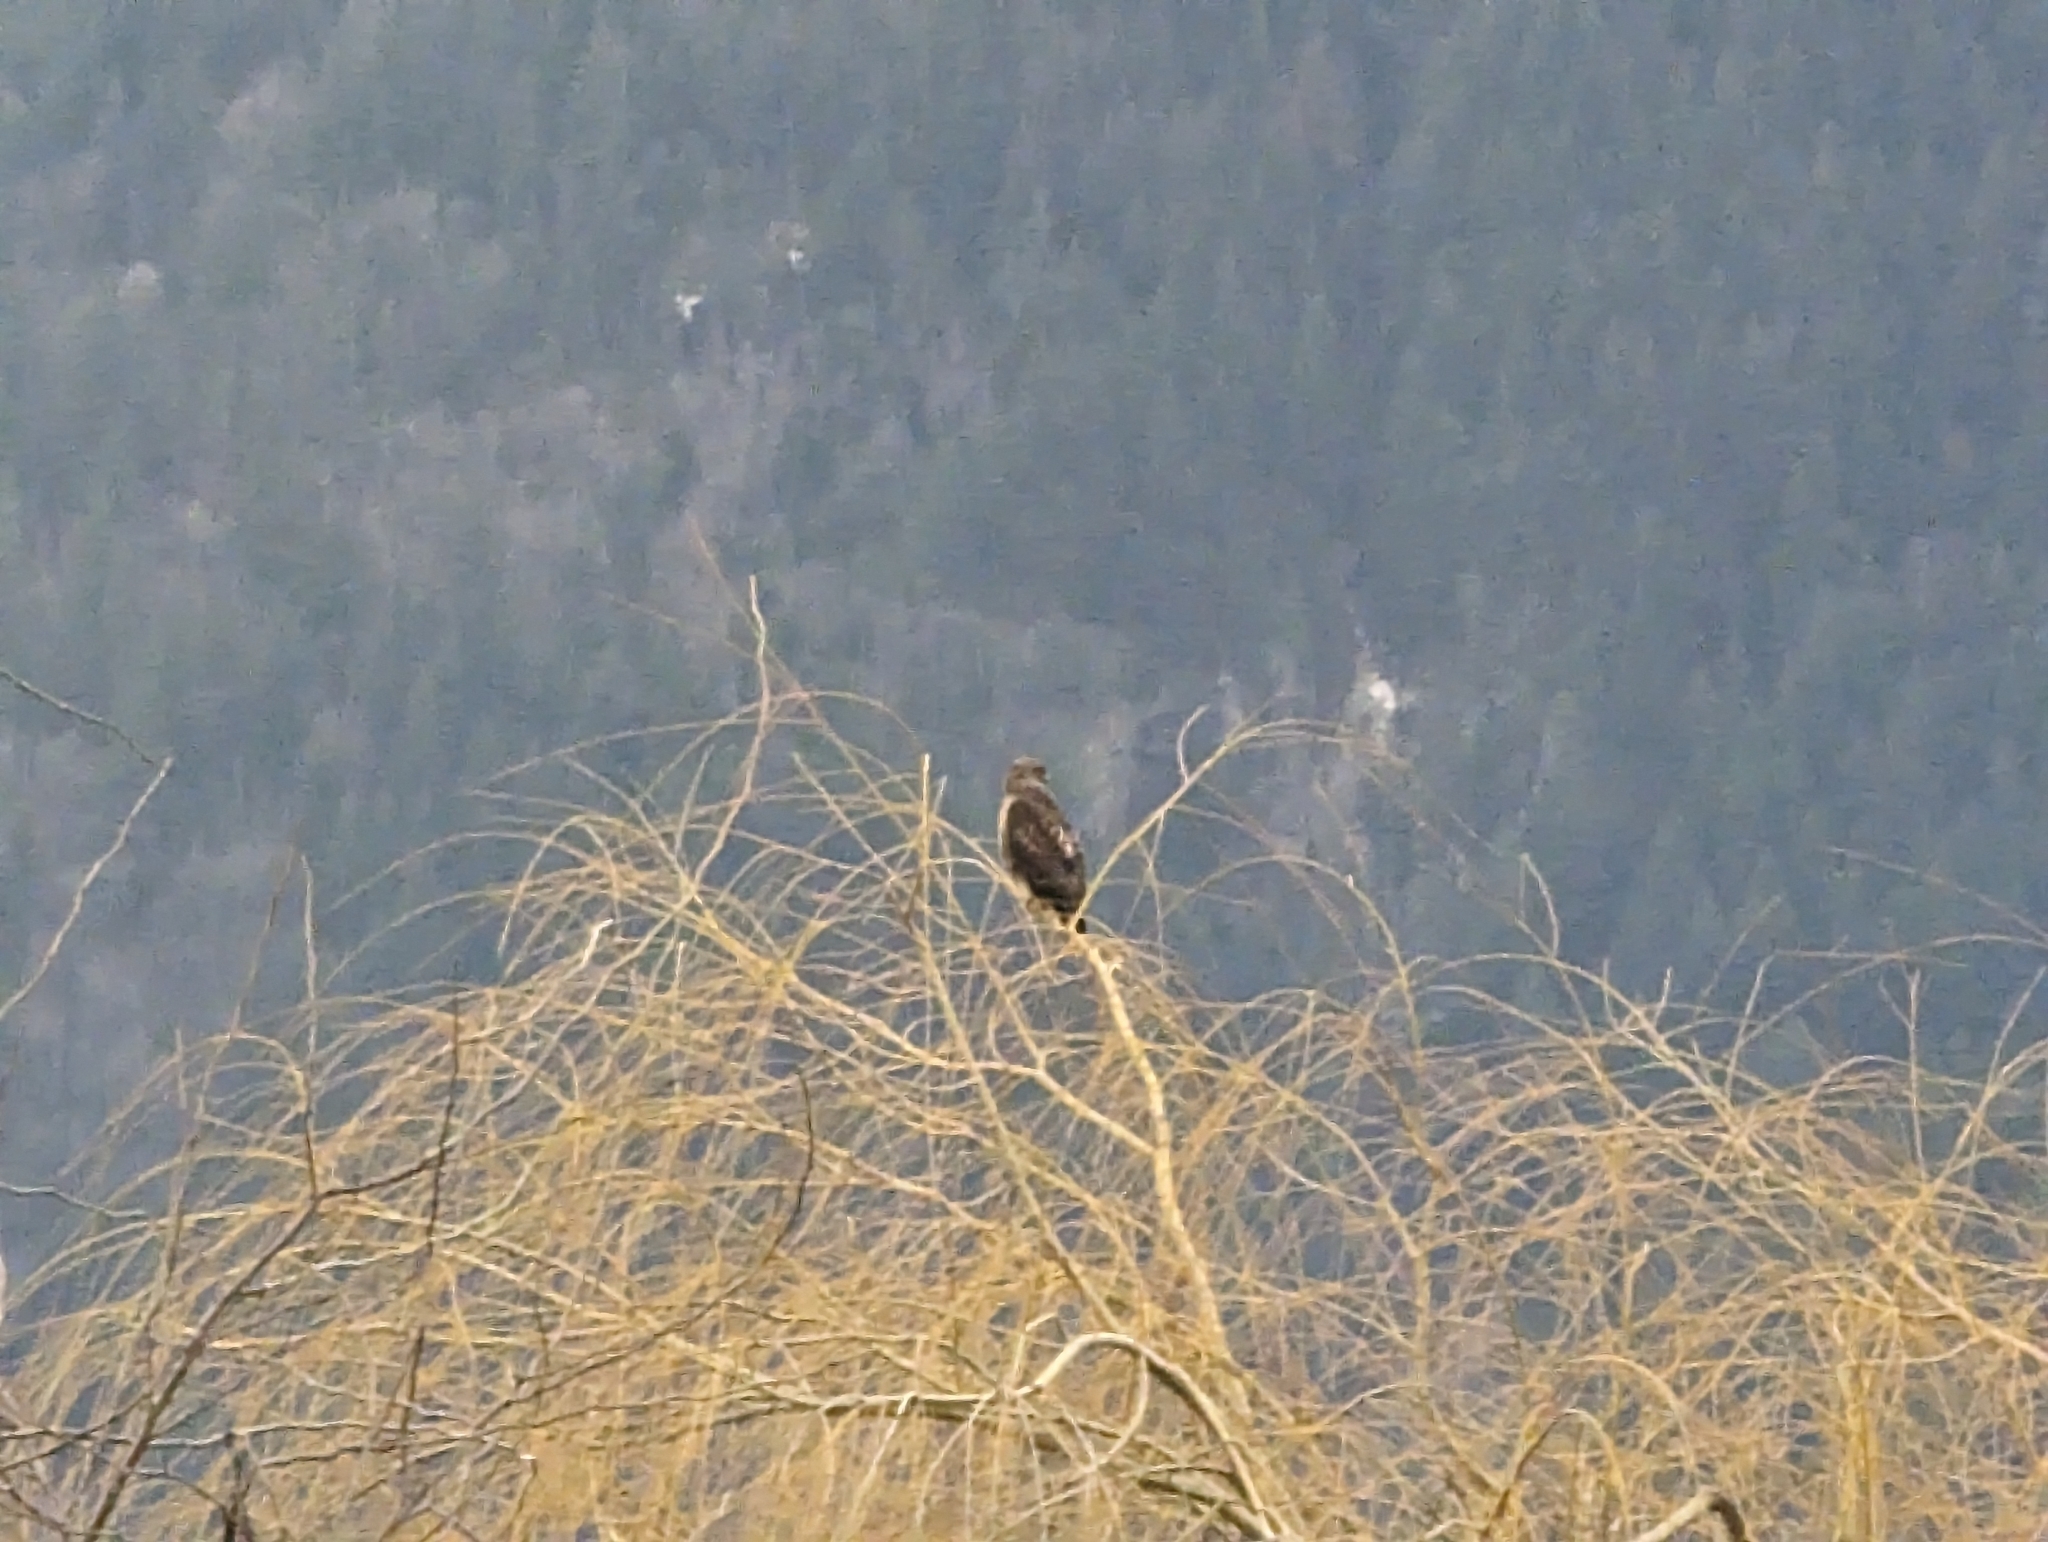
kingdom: Animalia
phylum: Chordata
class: Aves
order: Accipitriformes
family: Accipitridae
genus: Buteo
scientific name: Buteo jamaicensis
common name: Red-tailed hawk
